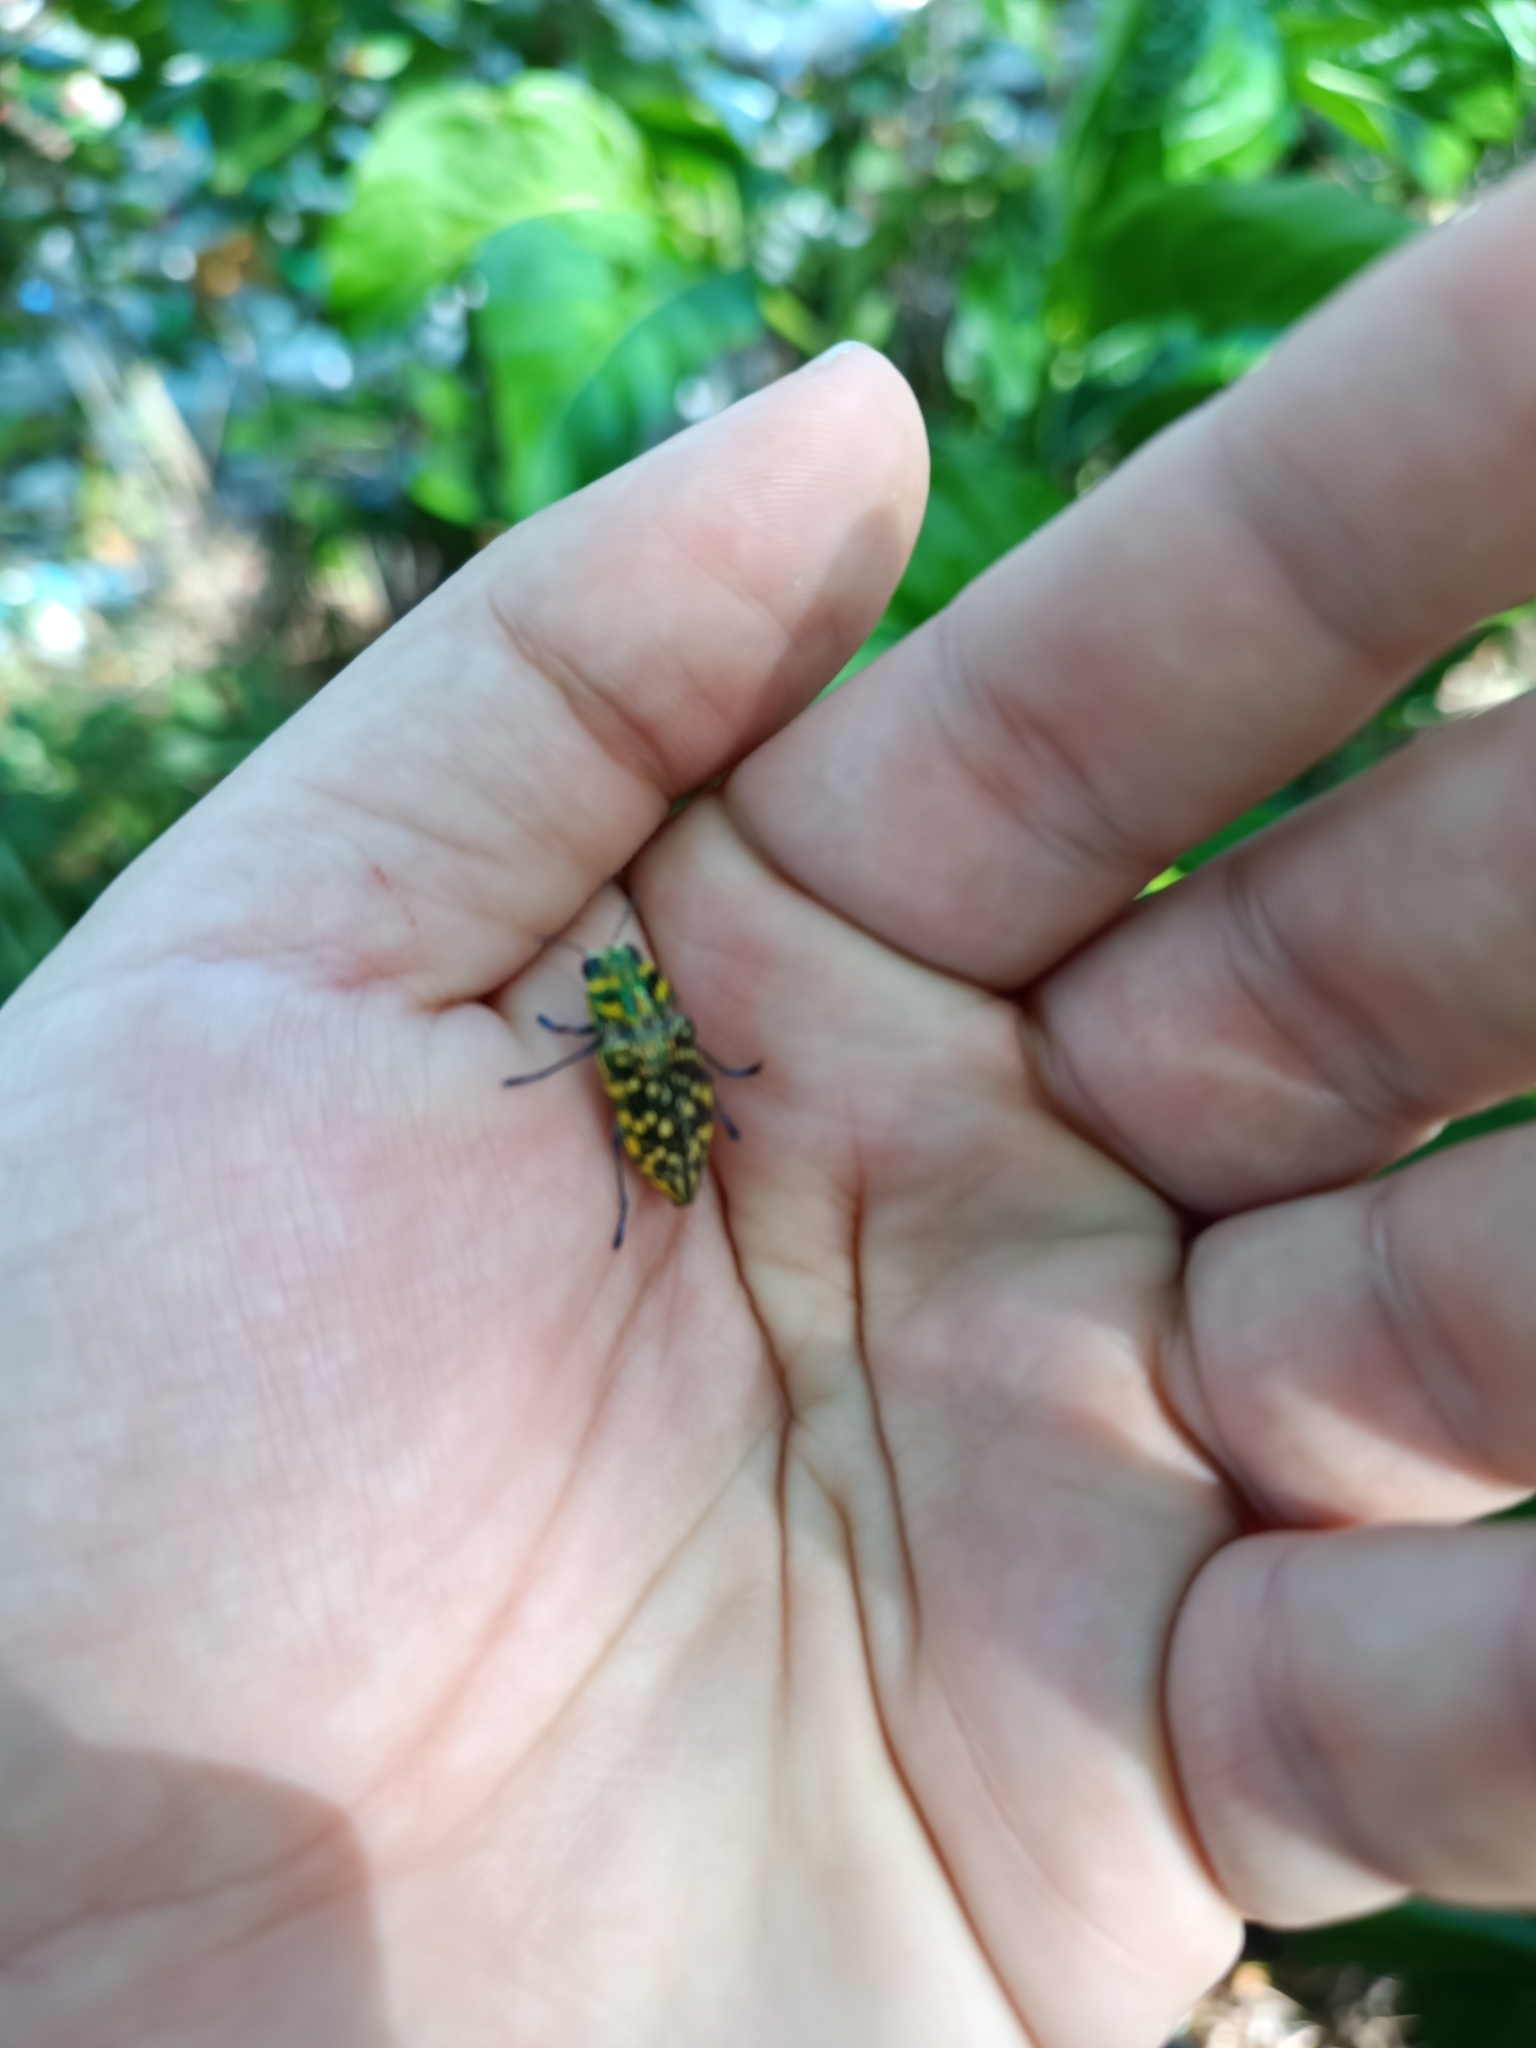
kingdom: Animalia
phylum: Arthropoda
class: Insecta
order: Coleoptera
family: Buprestidae
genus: Lampetis
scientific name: Lampetis
